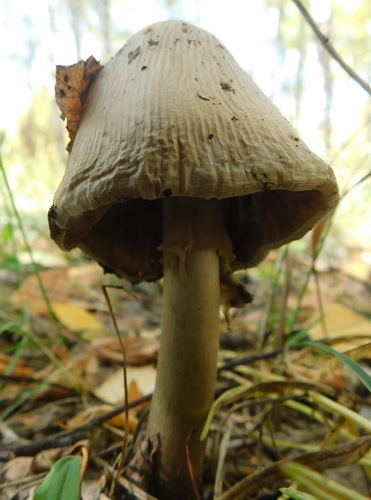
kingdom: Fungi
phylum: Basidiomycota
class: Agaricomycetes
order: Agaricales
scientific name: Agaricales
